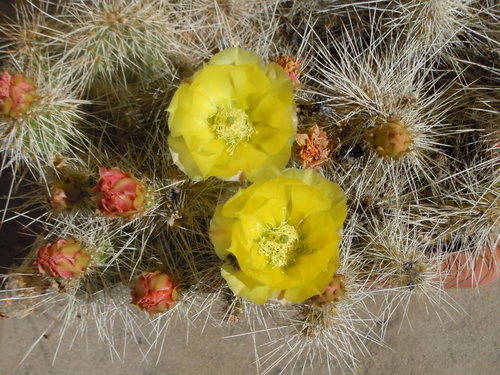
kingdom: Plantae
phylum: Tracheophyta
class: Magnoliopsida
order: Caryophyllales
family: Cactaceae
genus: Opuntia
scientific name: Opuntia polyacantha
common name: Plains prickly-pear
